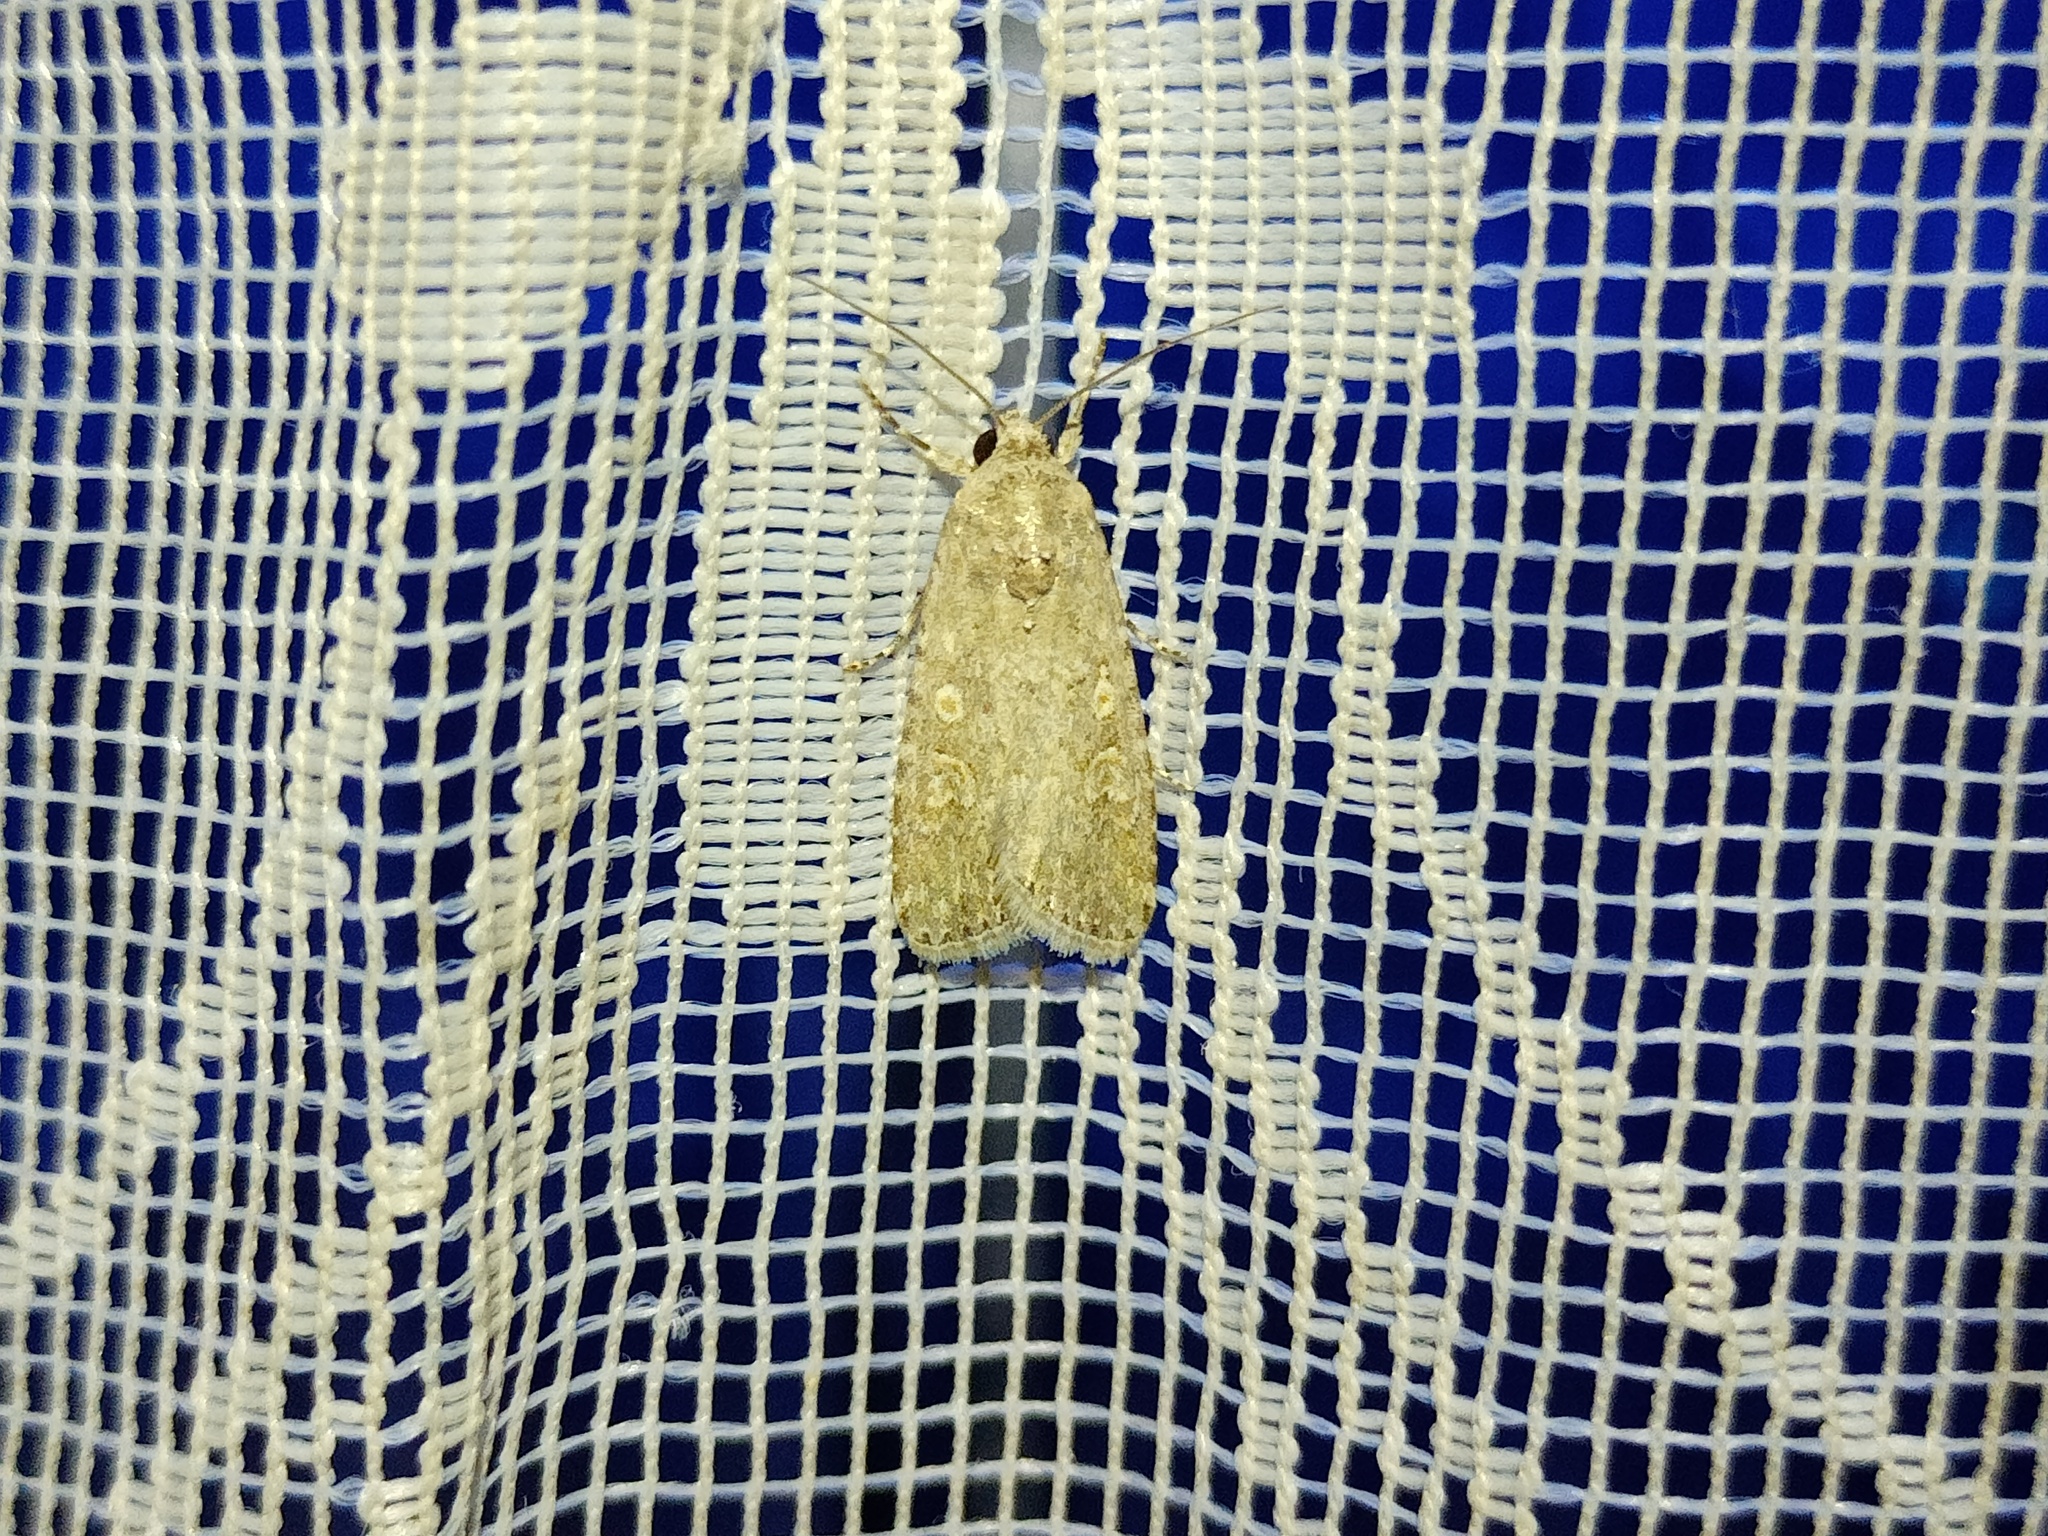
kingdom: Animalia
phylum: Arthropoda
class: Insecta
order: Lepidoptera
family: Noctuidae
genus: Spodoptera
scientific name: Spodoptera exigua
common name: Beet armyworm
